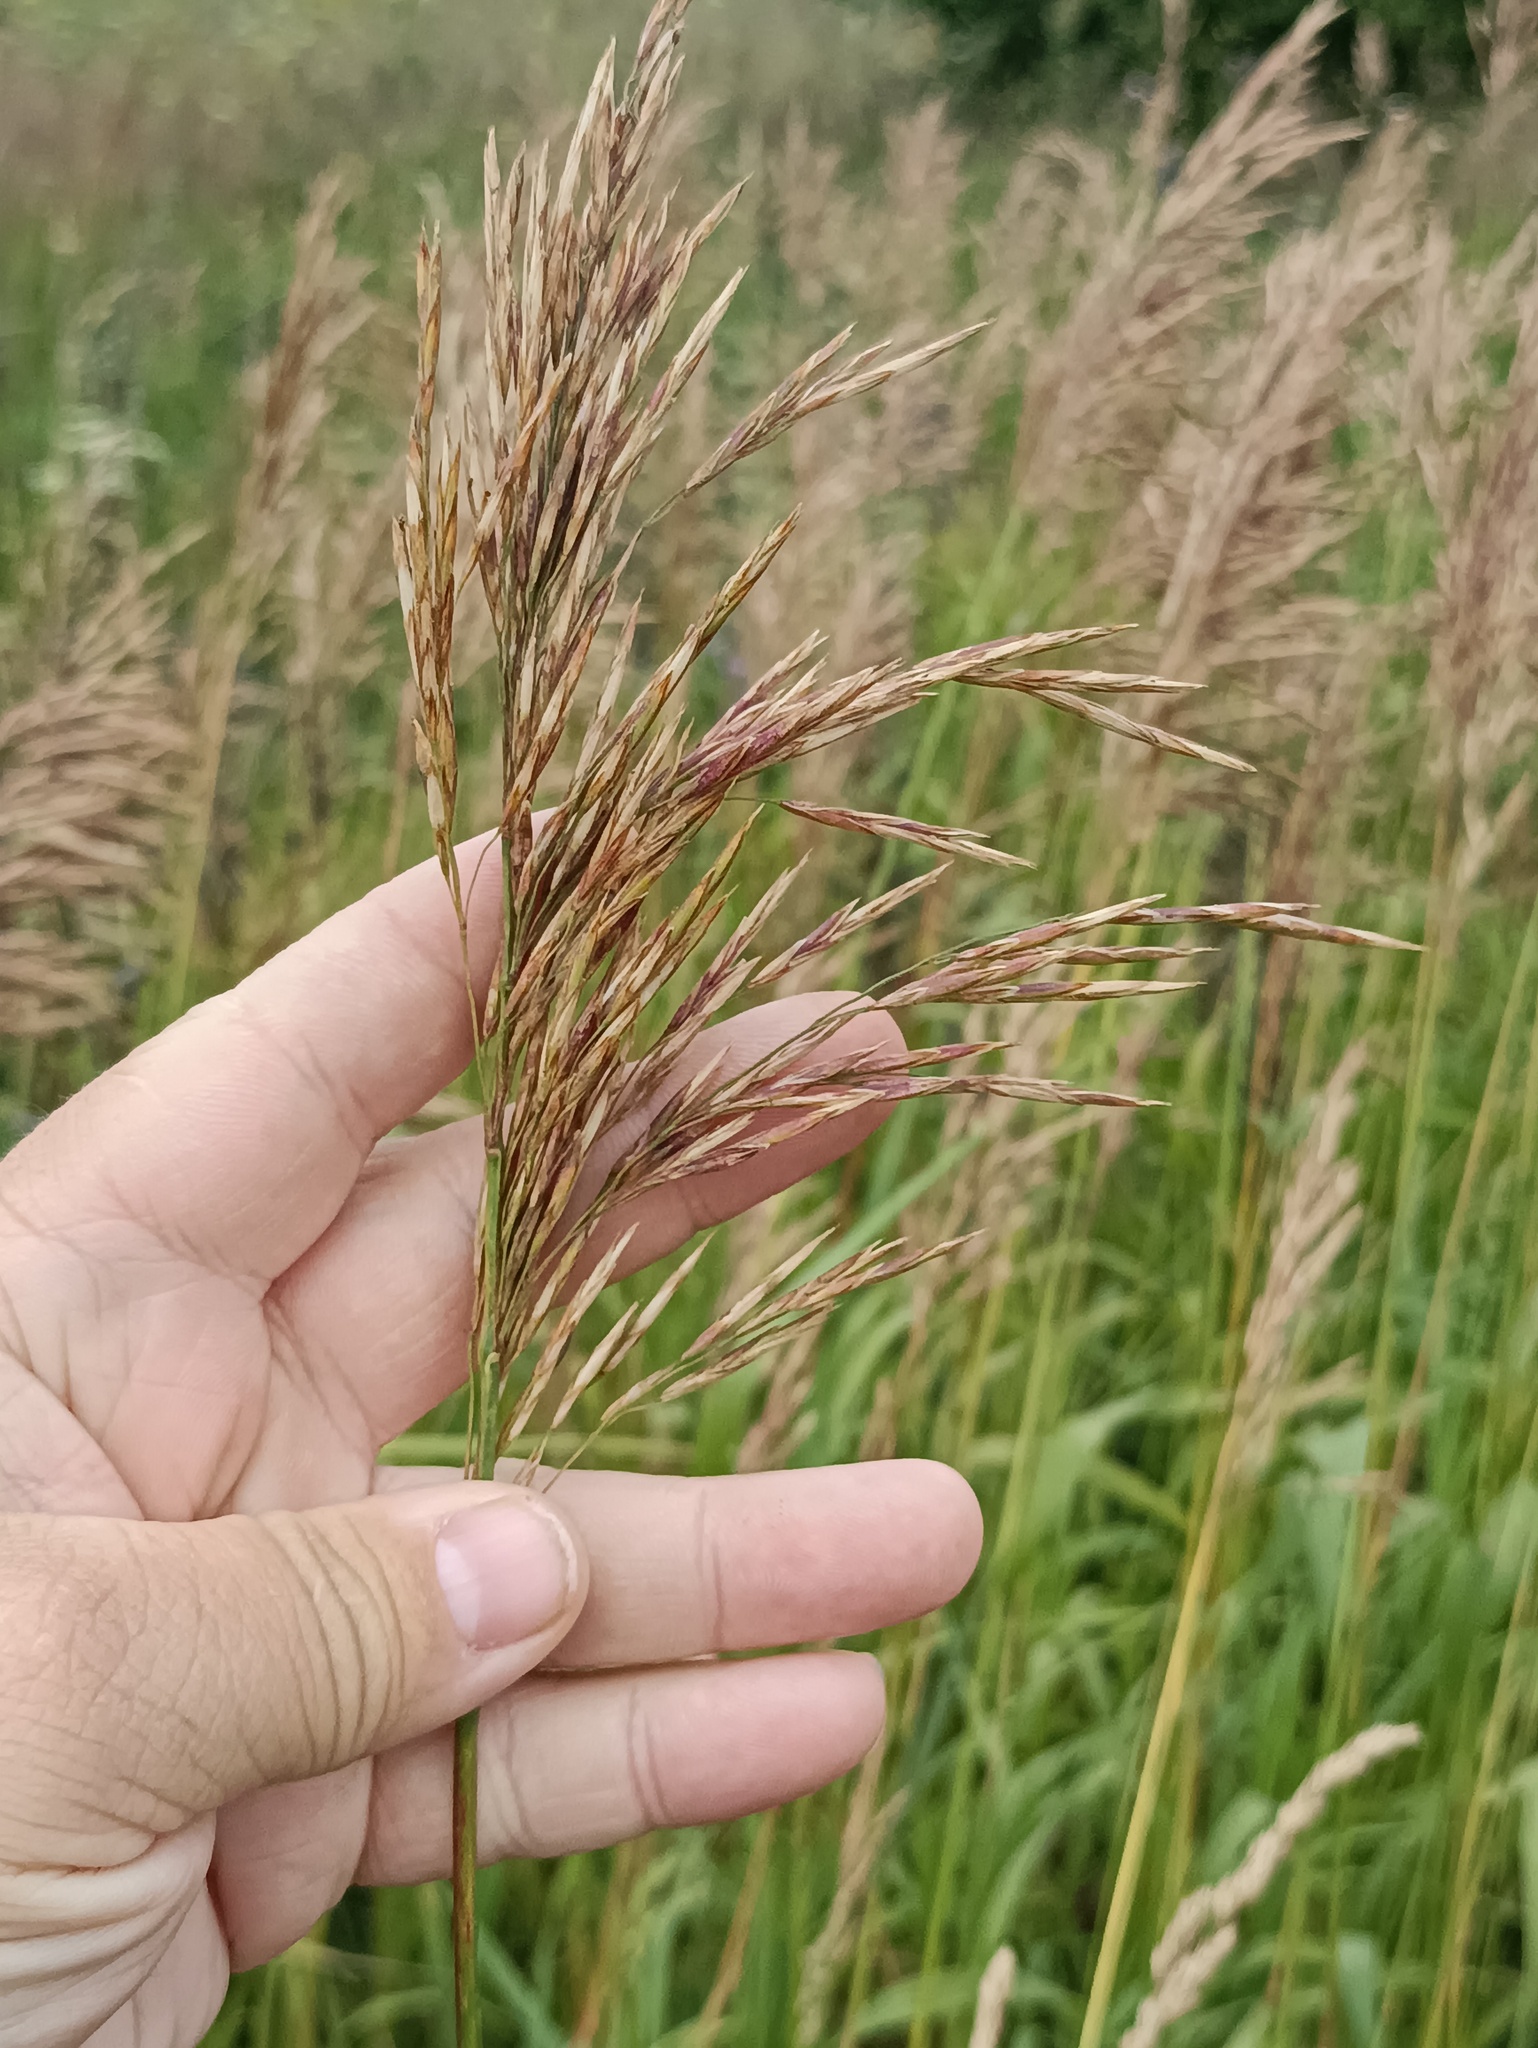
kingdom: Plantae
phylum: Tracheophyta
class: Liliopsida
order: Poales
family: Poaceae
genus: Bromus
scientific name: Bromus inermis
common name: Smooth brome
